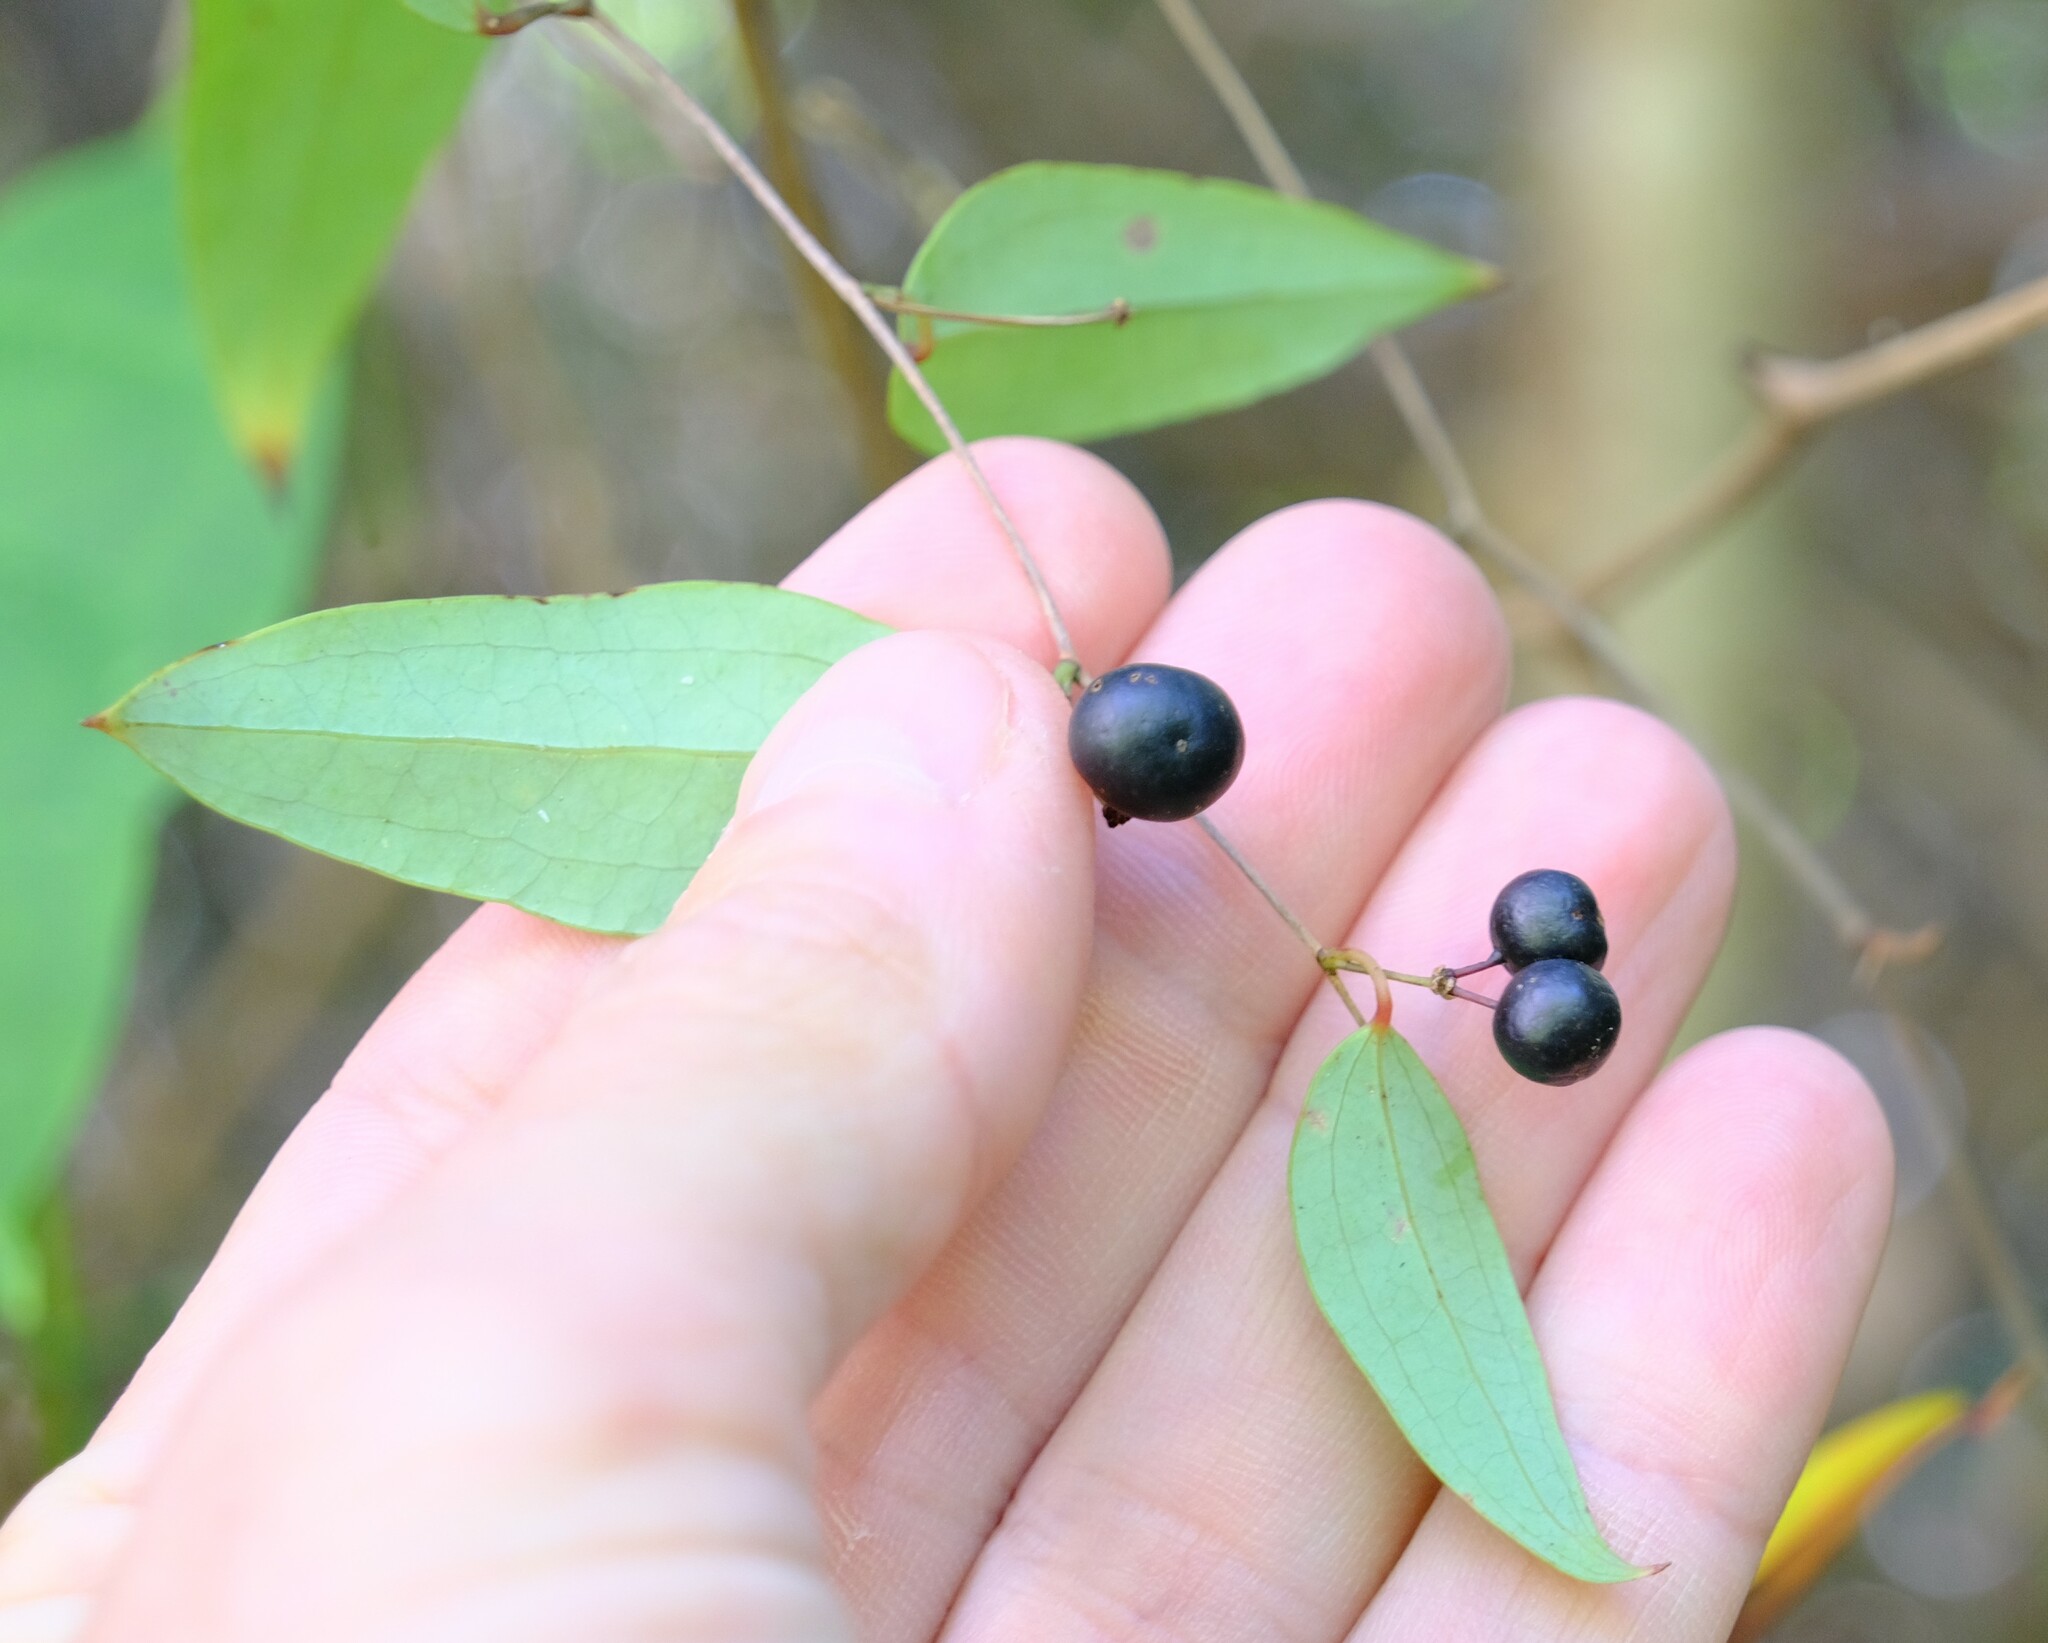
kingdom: Plantae
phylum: Tracheophyta
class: Liliopsida
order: Liliales
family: Smilacaceae
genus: Smilax
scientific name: Smilax glyciphylla
